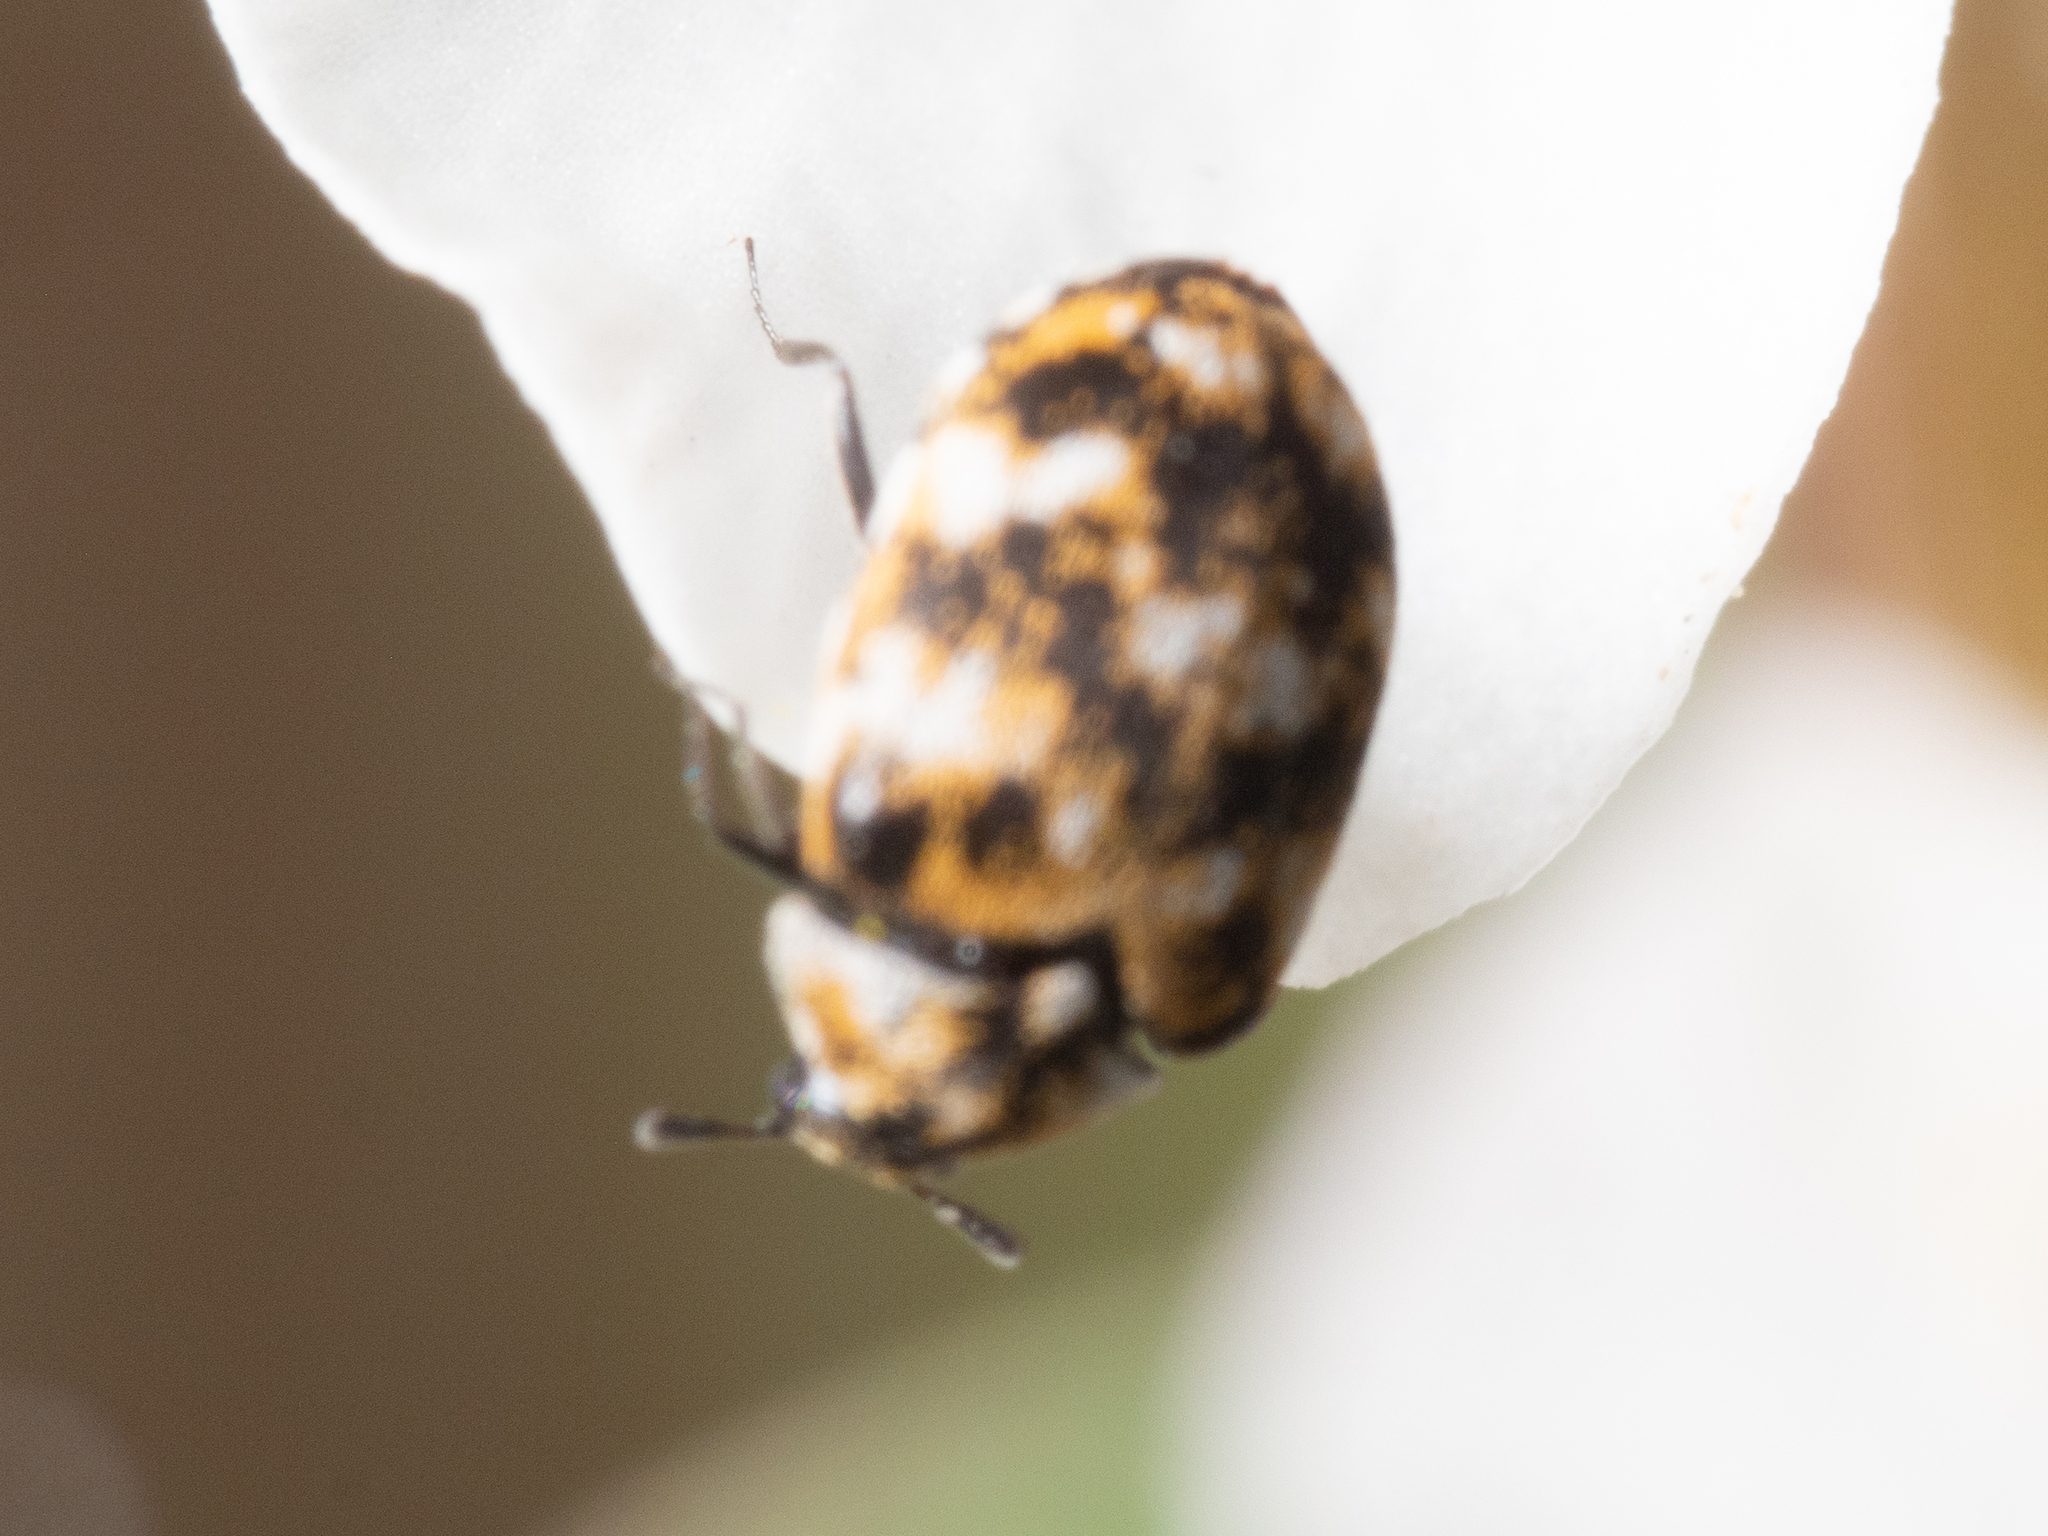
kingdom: Animalia
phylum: Arthropoda
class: Insecta
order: Coleoptera
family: Dermestidae
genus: Anthrenus
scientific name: Anthrenus verbasci
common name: Varied carpet beetle
